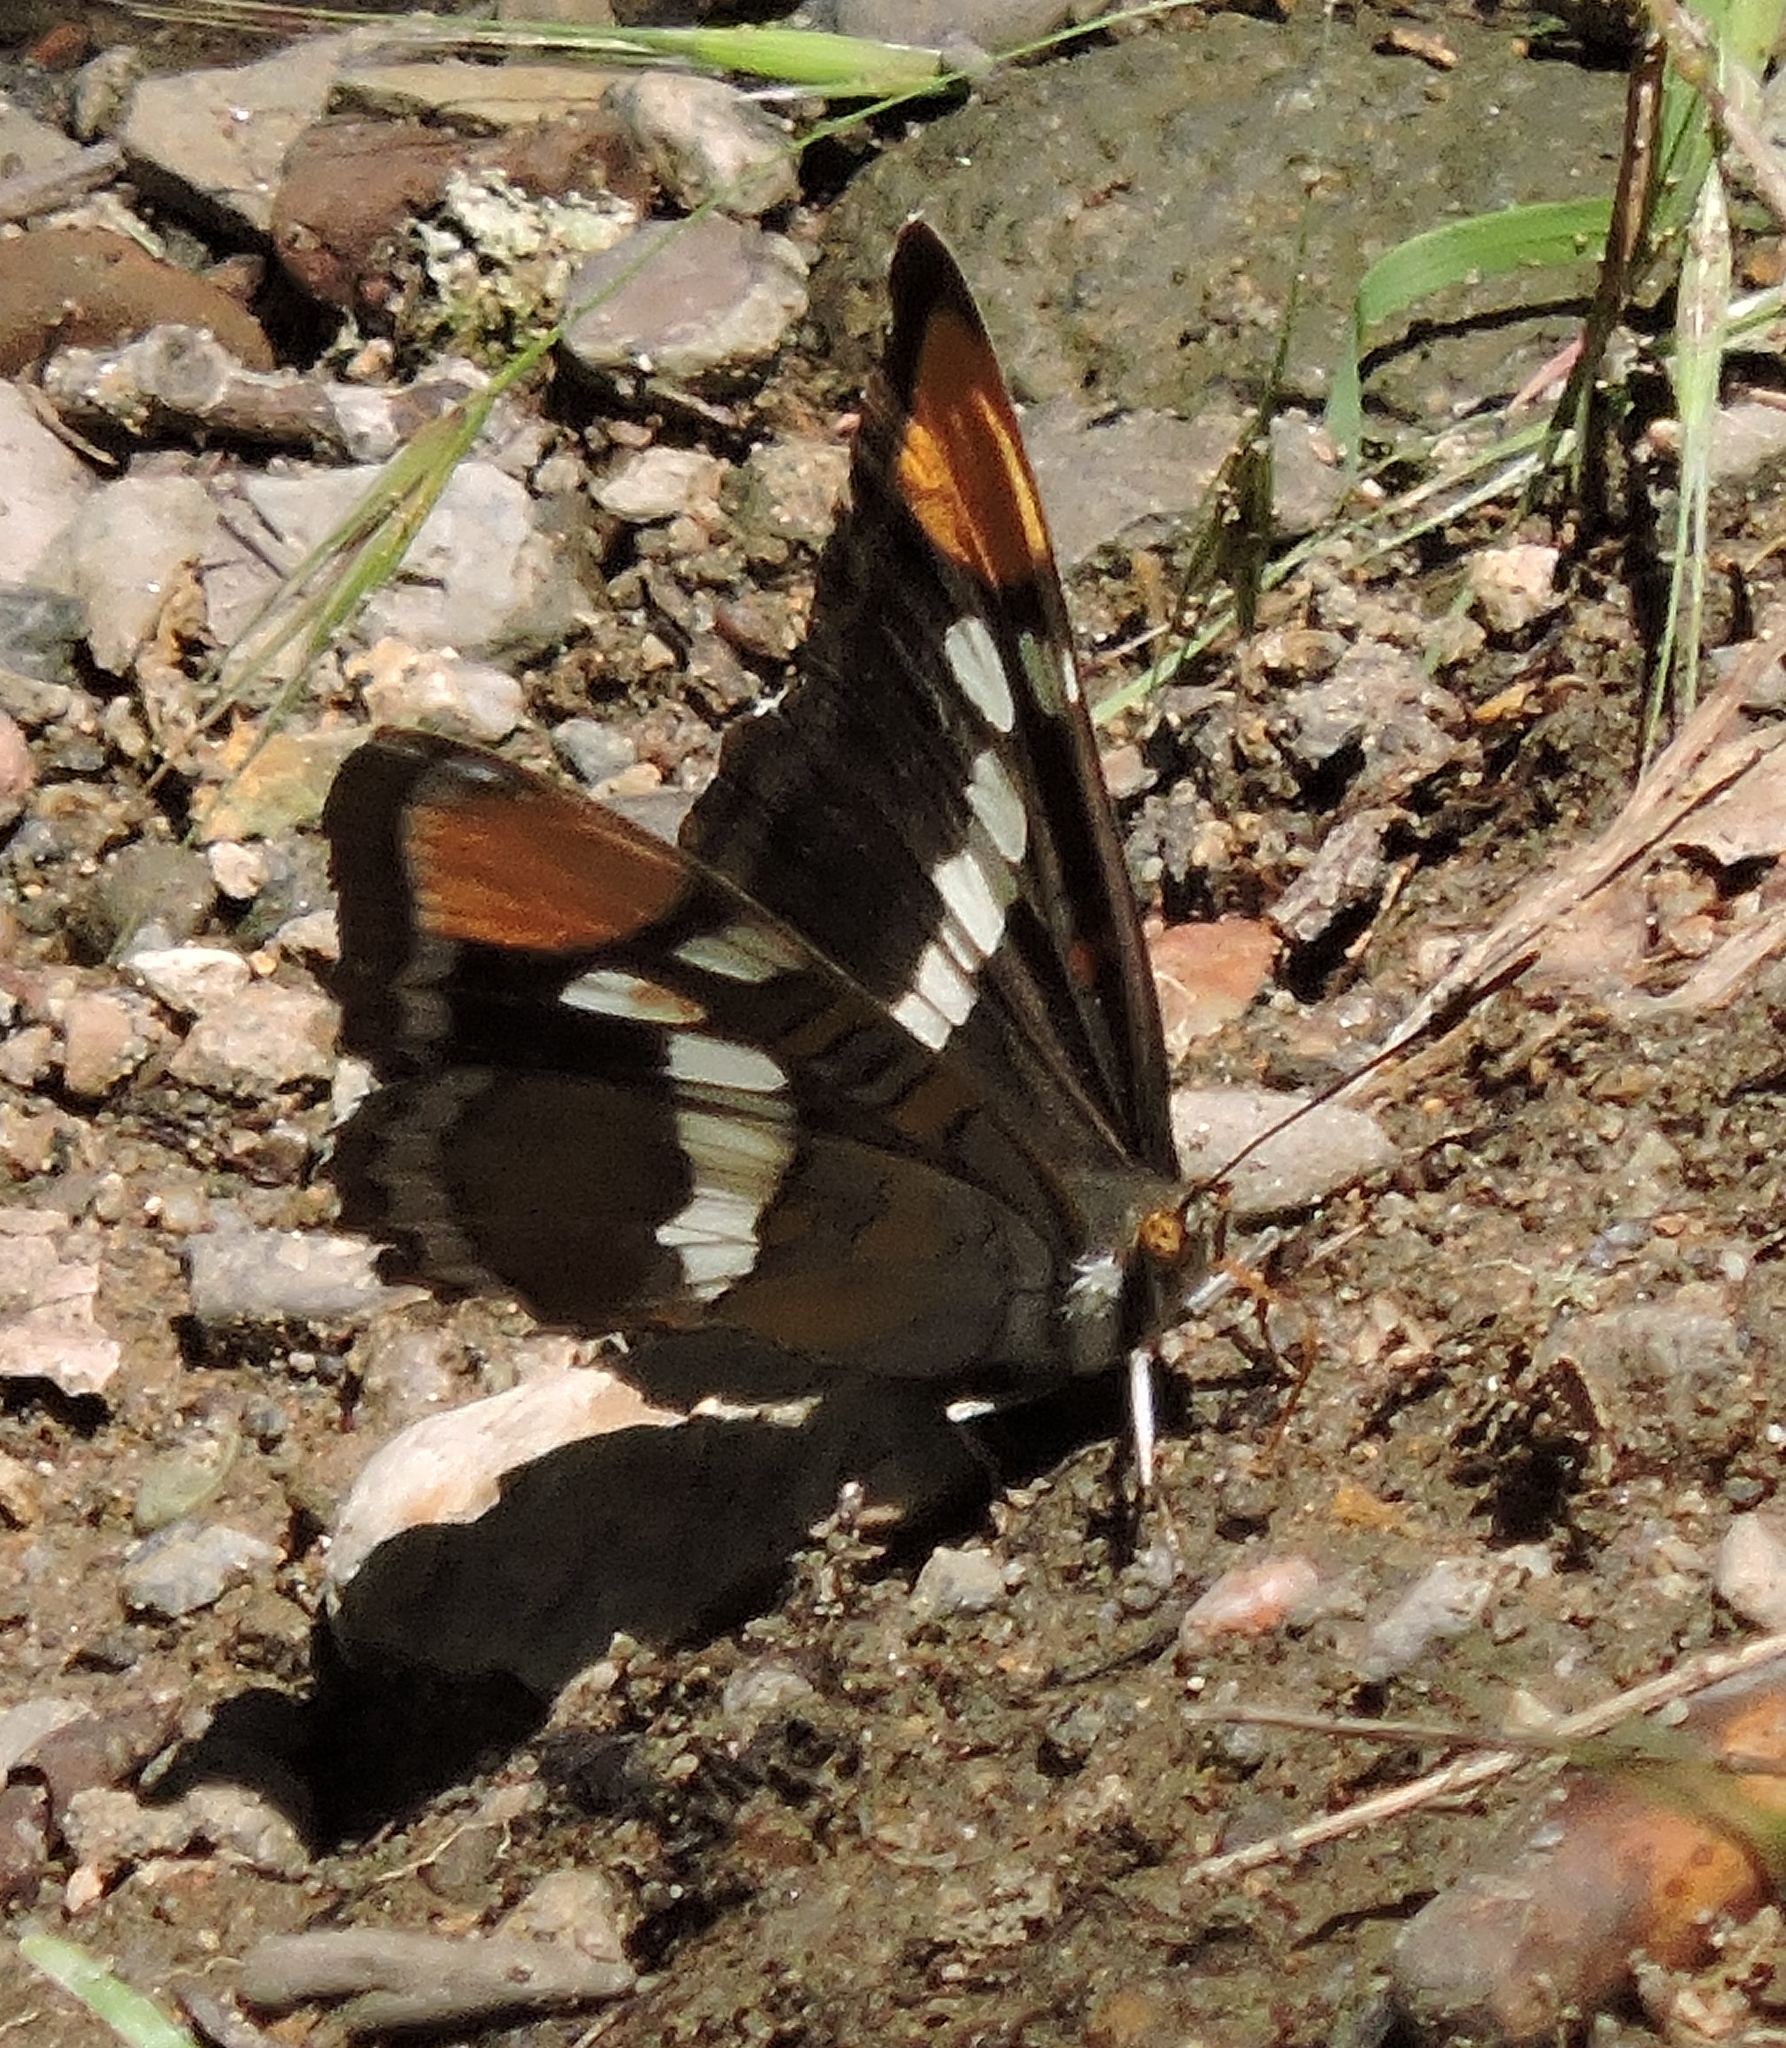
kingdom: Animalia
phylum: Arthropoda
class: Insecta
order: Lepidoptera
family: Nymphalidae
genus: Limenitis
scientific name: Limenitis bredowii
